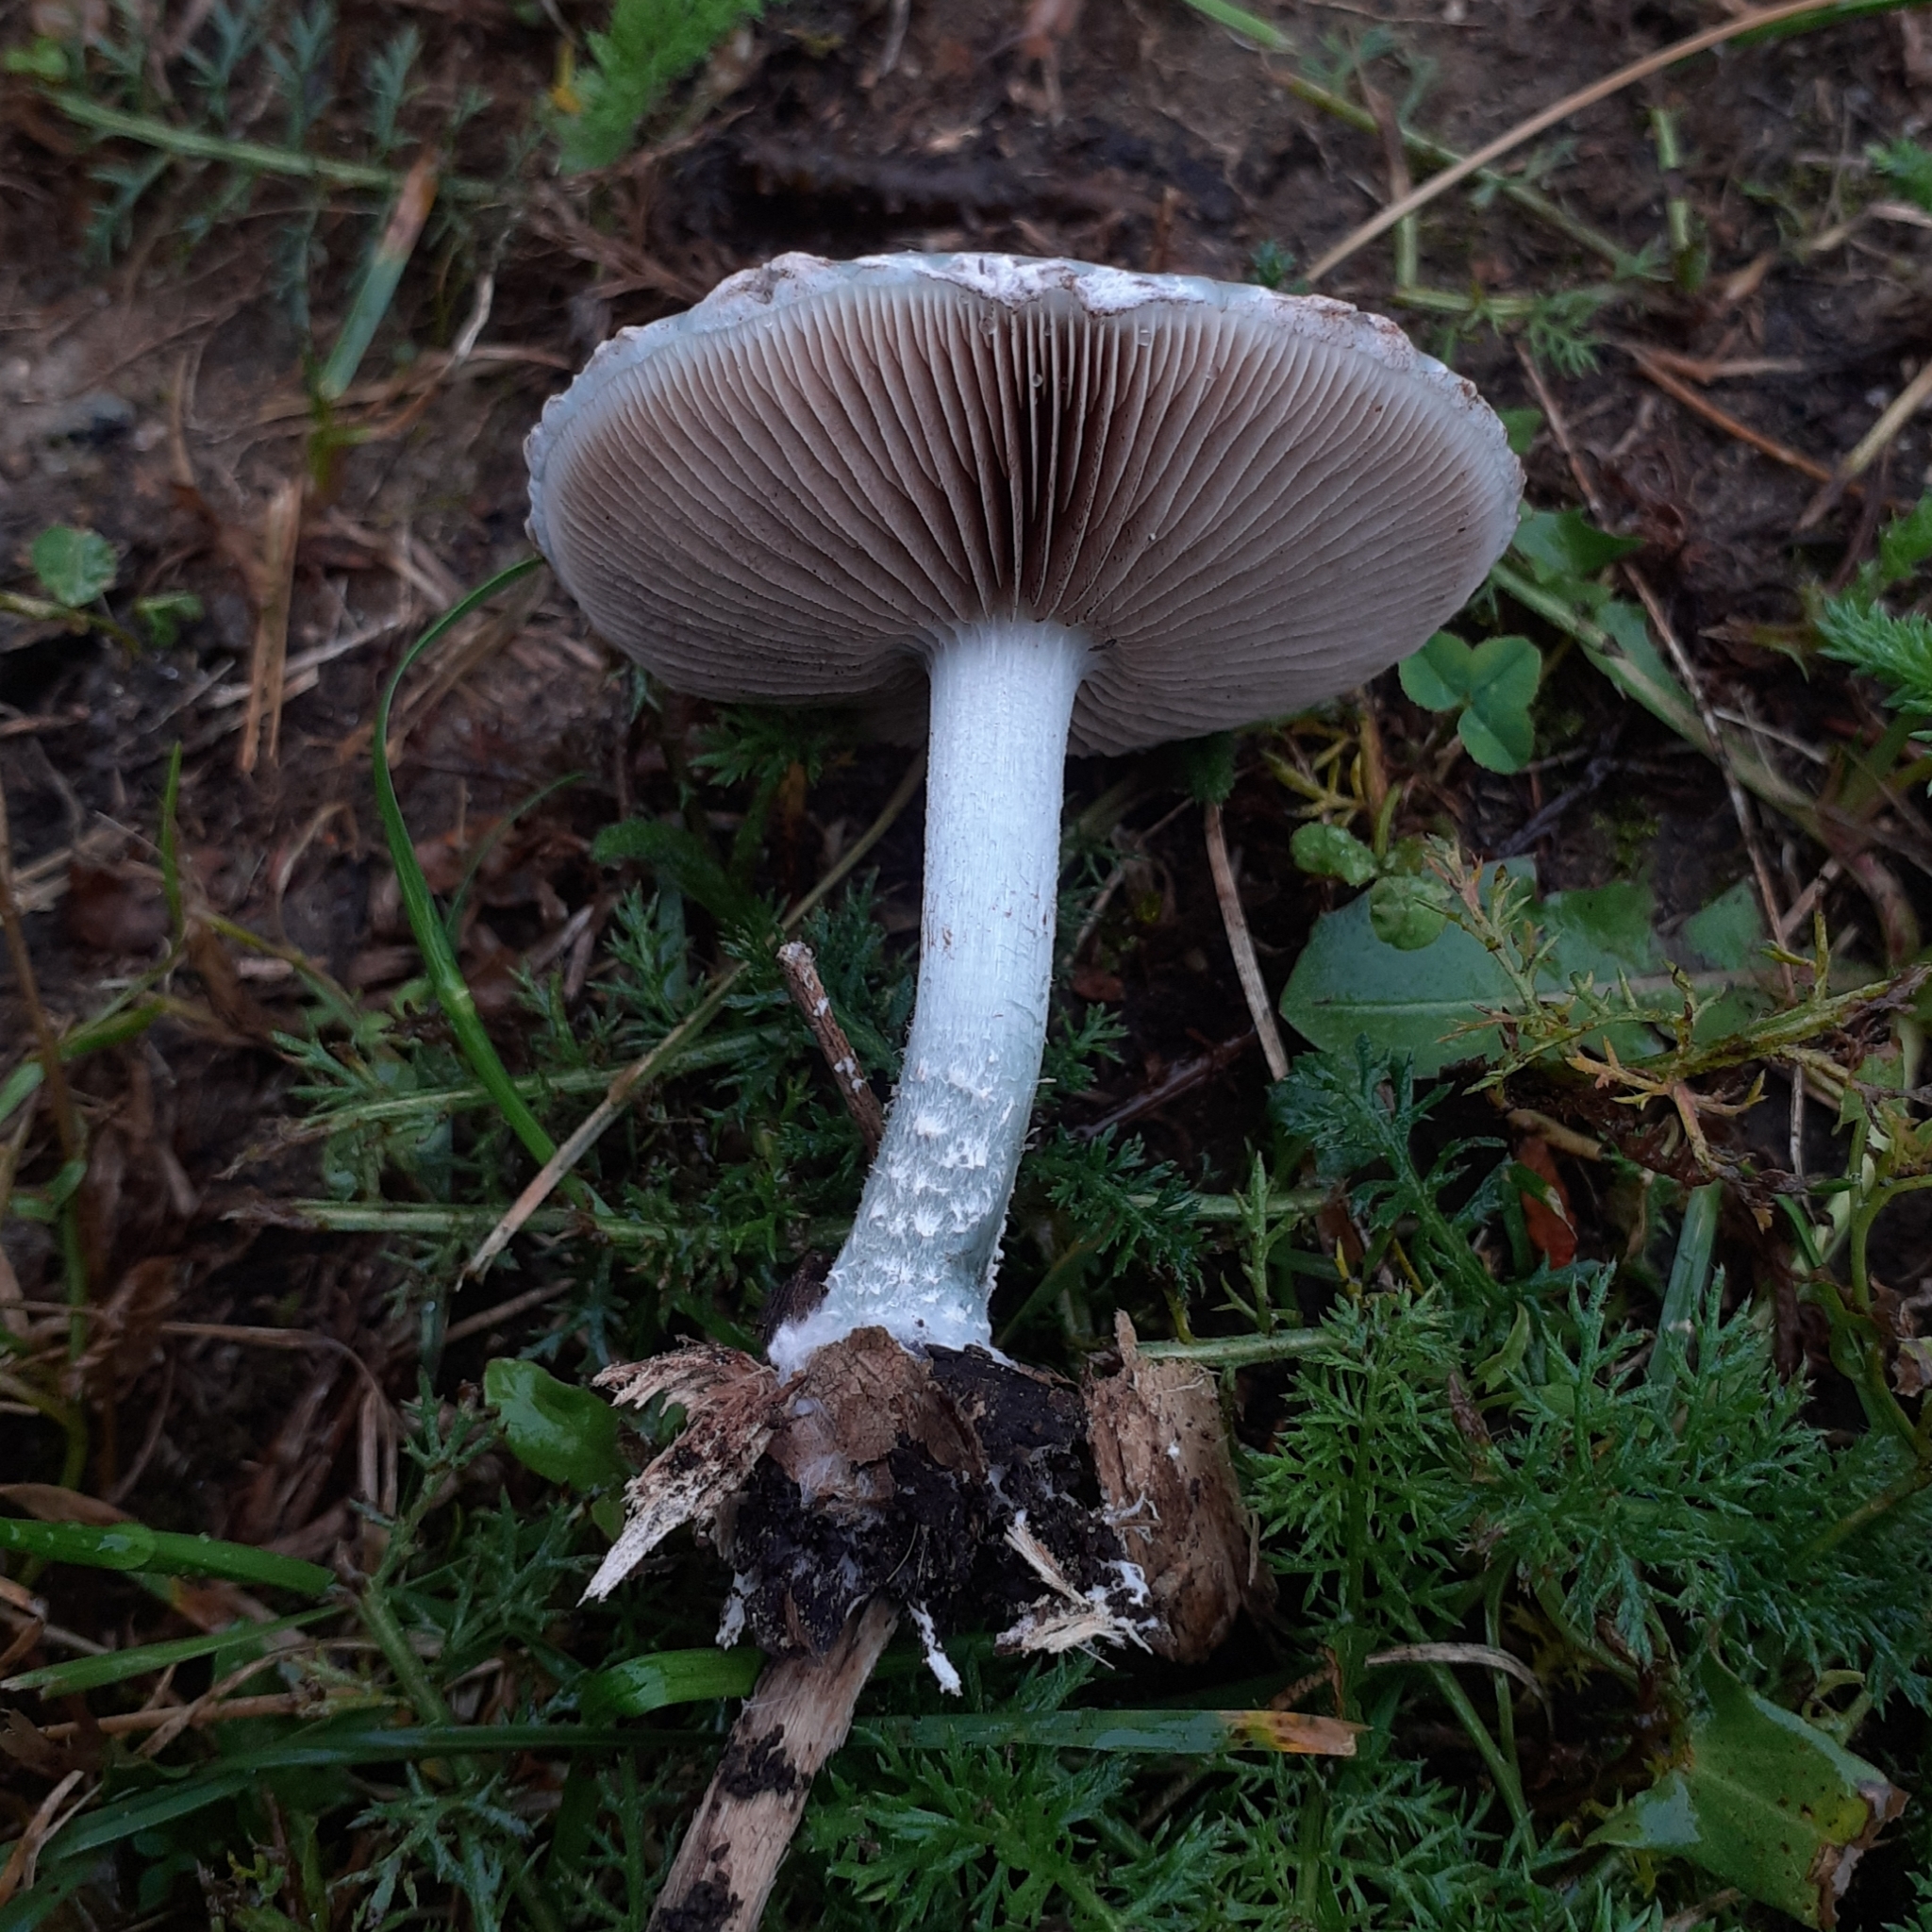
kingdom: Fungi
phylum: Basidiomycota
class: Agaricomycetes
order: Agaricales
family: Strophariaceae
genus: Stropharia
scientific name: Stropharia caerulea
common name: Blue roundhead
